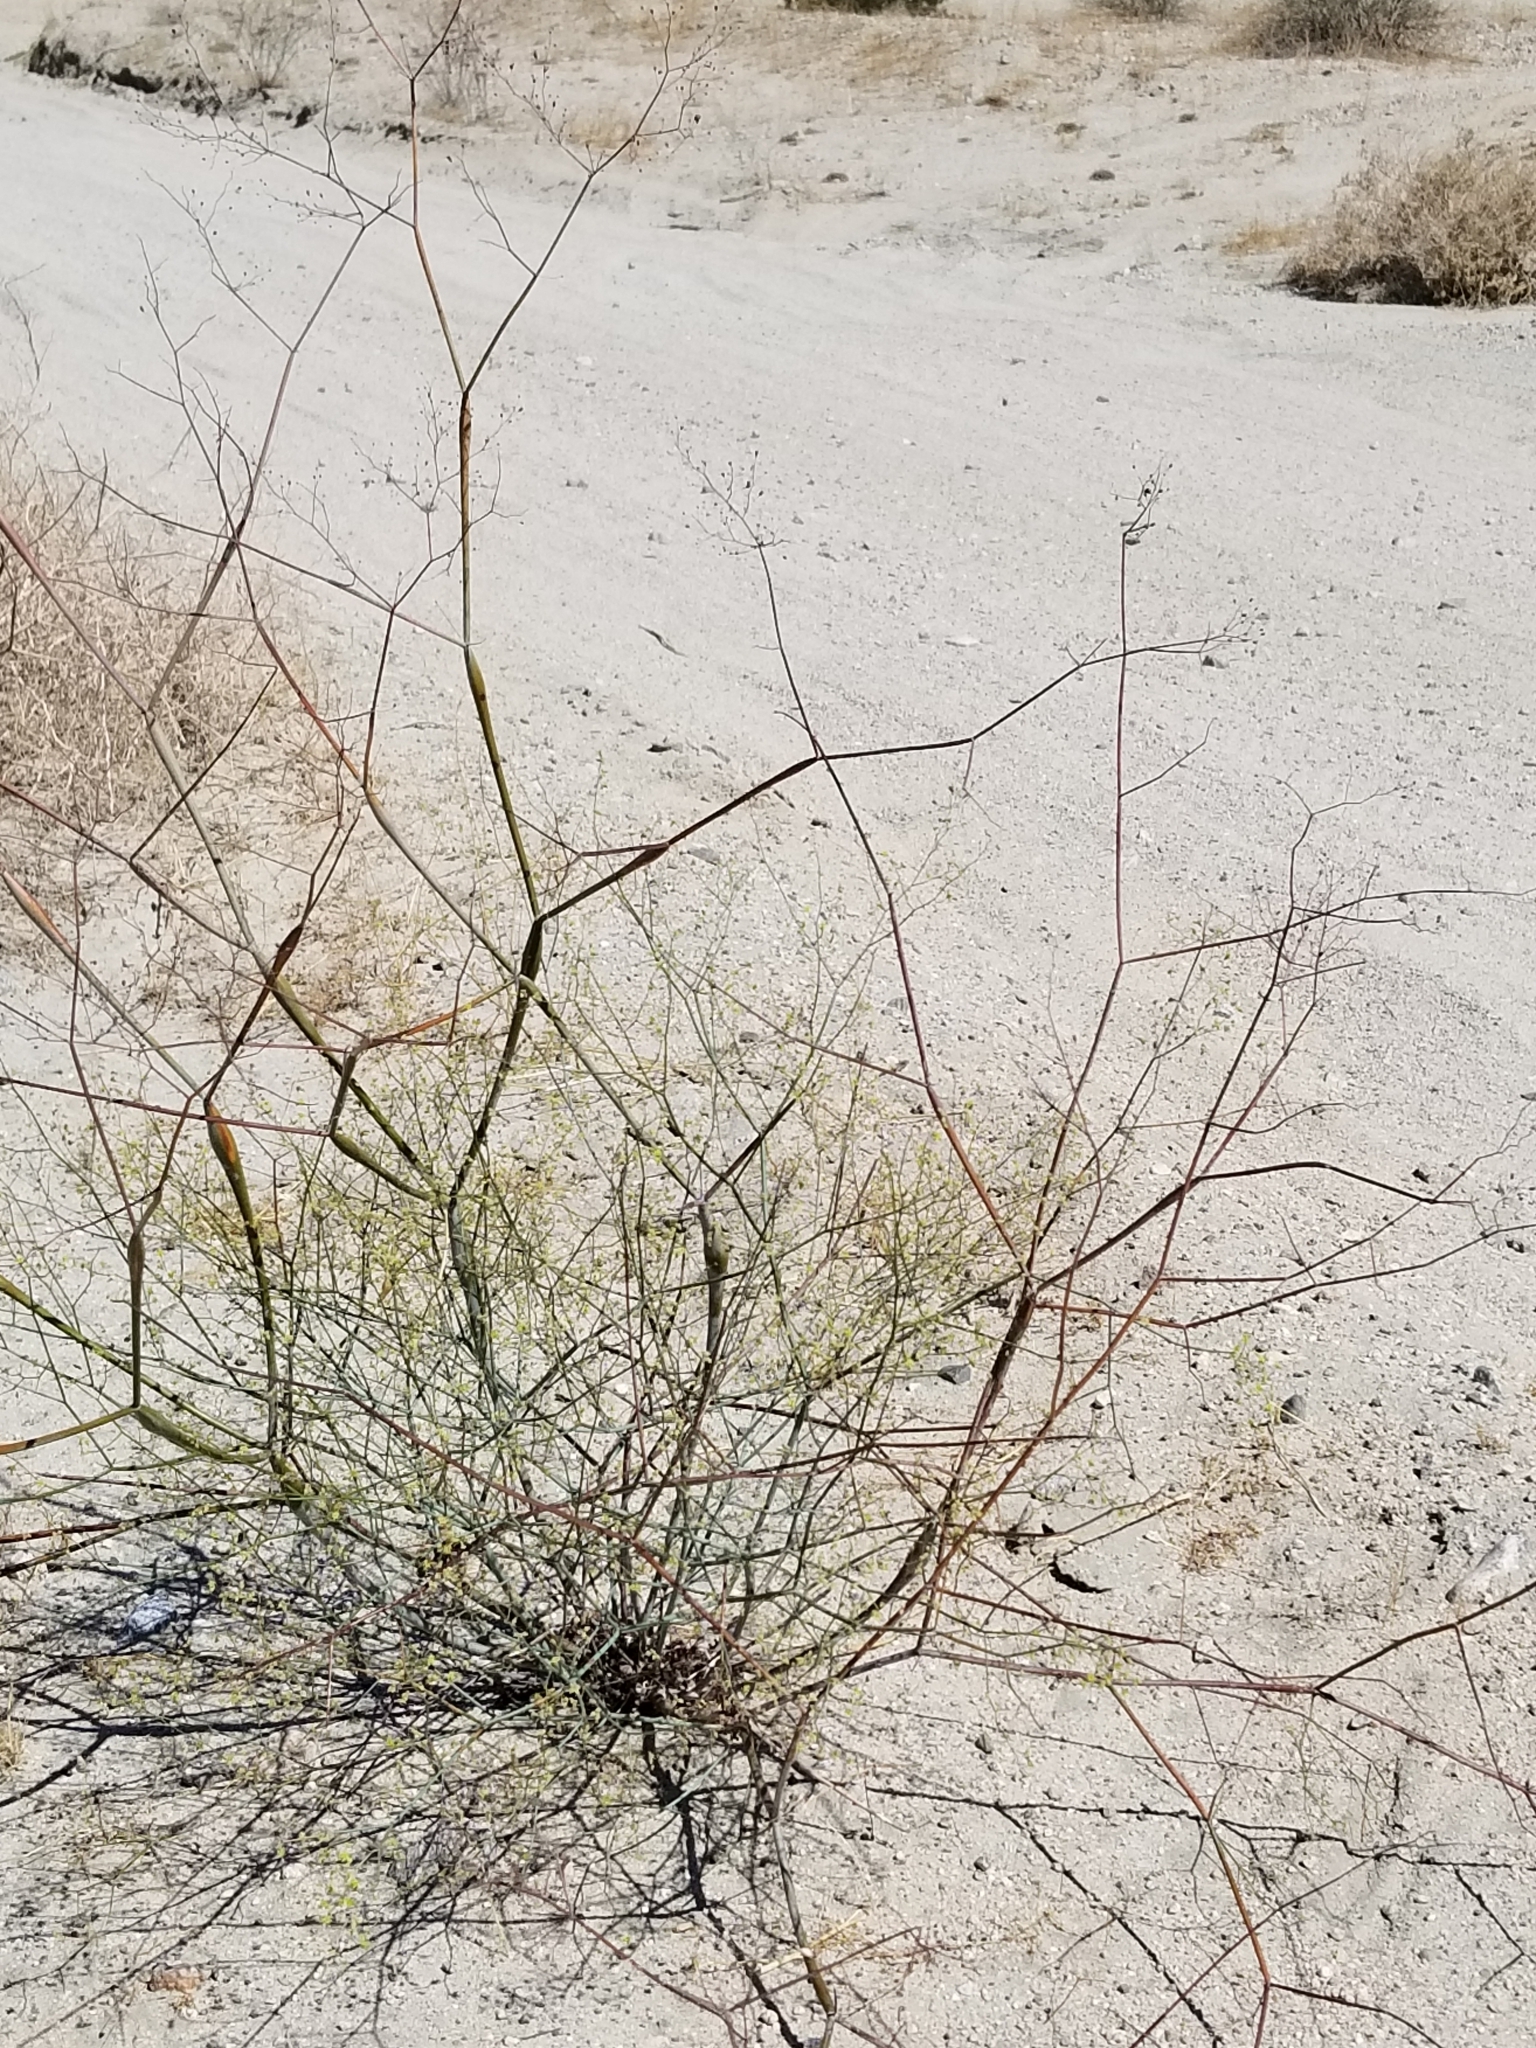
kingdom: Plantae
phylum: Tracheophyta
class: Magnoliopsida
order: Caryophyllales
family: Polygonaceae
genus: Eriogonum
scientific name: Eriogonum inflatum
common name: Desert trumpet
